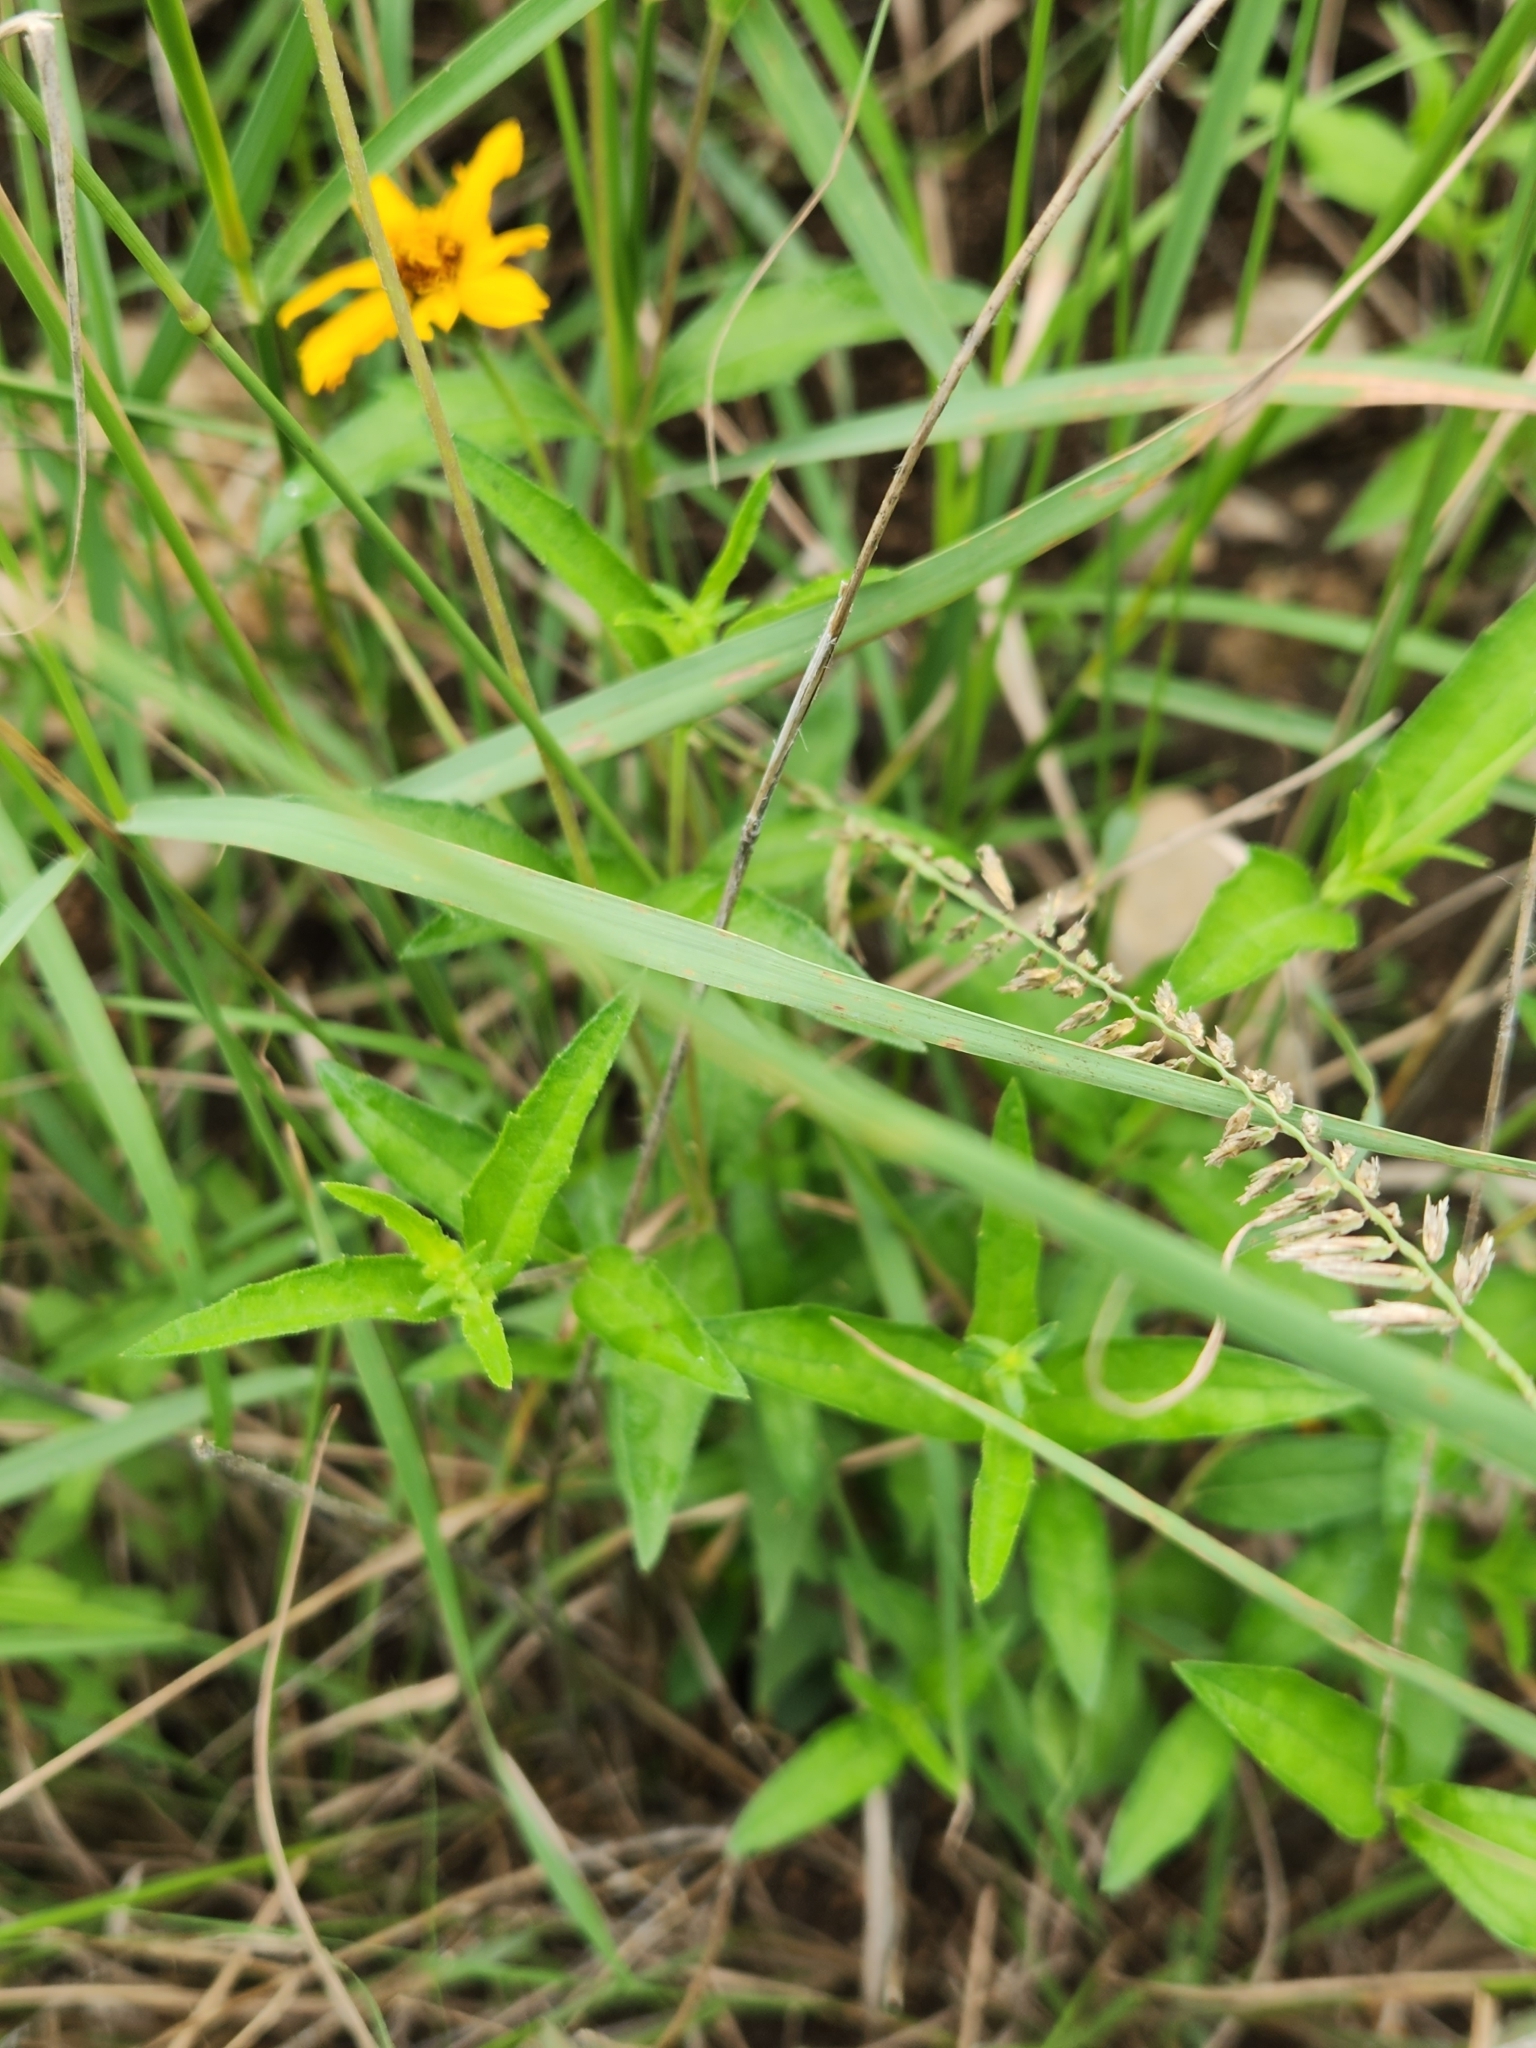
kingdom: Plantae
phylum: Tracheophyta
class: Magnoliopsida
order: Asterales
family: Asteraceae
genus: Wedelia
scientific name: Wedelia acapulcensis
